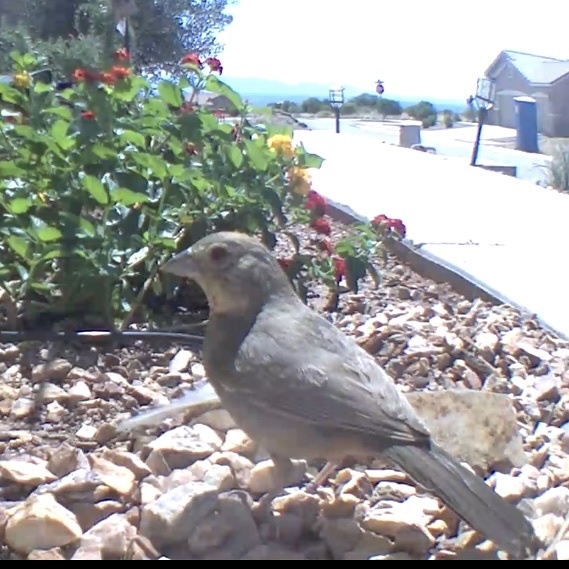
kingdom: Animalia
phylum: Chordata
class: Aves
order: Passeriformes
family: Passerellidae
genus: Melozone
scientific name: Melozone fusca
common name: Canyon towhee
